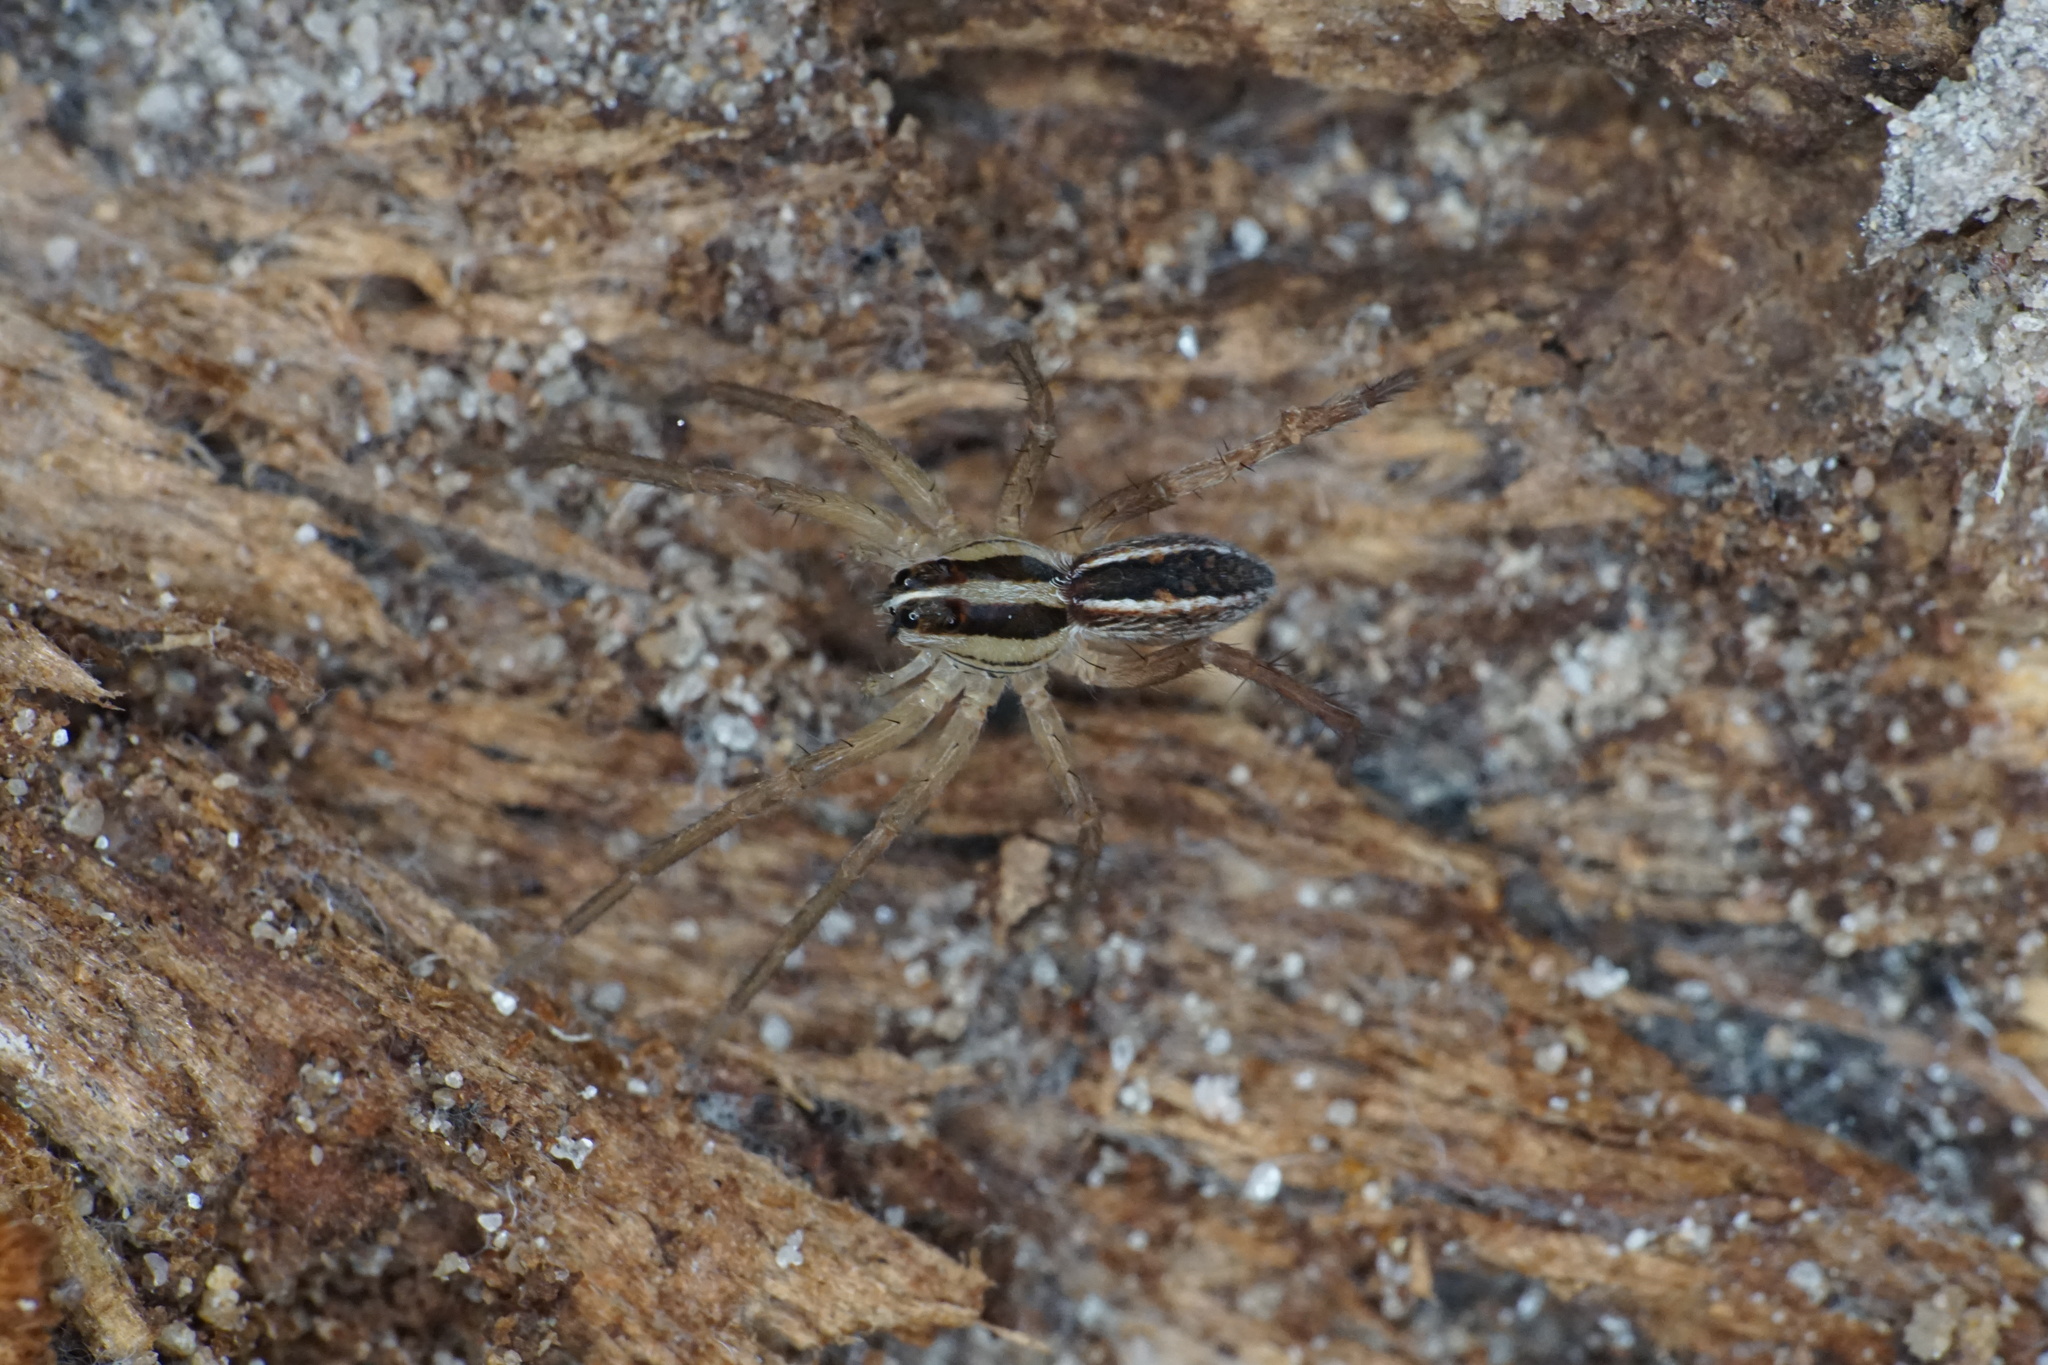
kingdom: Animalia
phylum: Arthropoda
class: Arachnida
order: Araneae
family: Lycosidae
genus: Rabidosa
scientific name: Rabidosa rabida
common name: Rabid wolf spider
